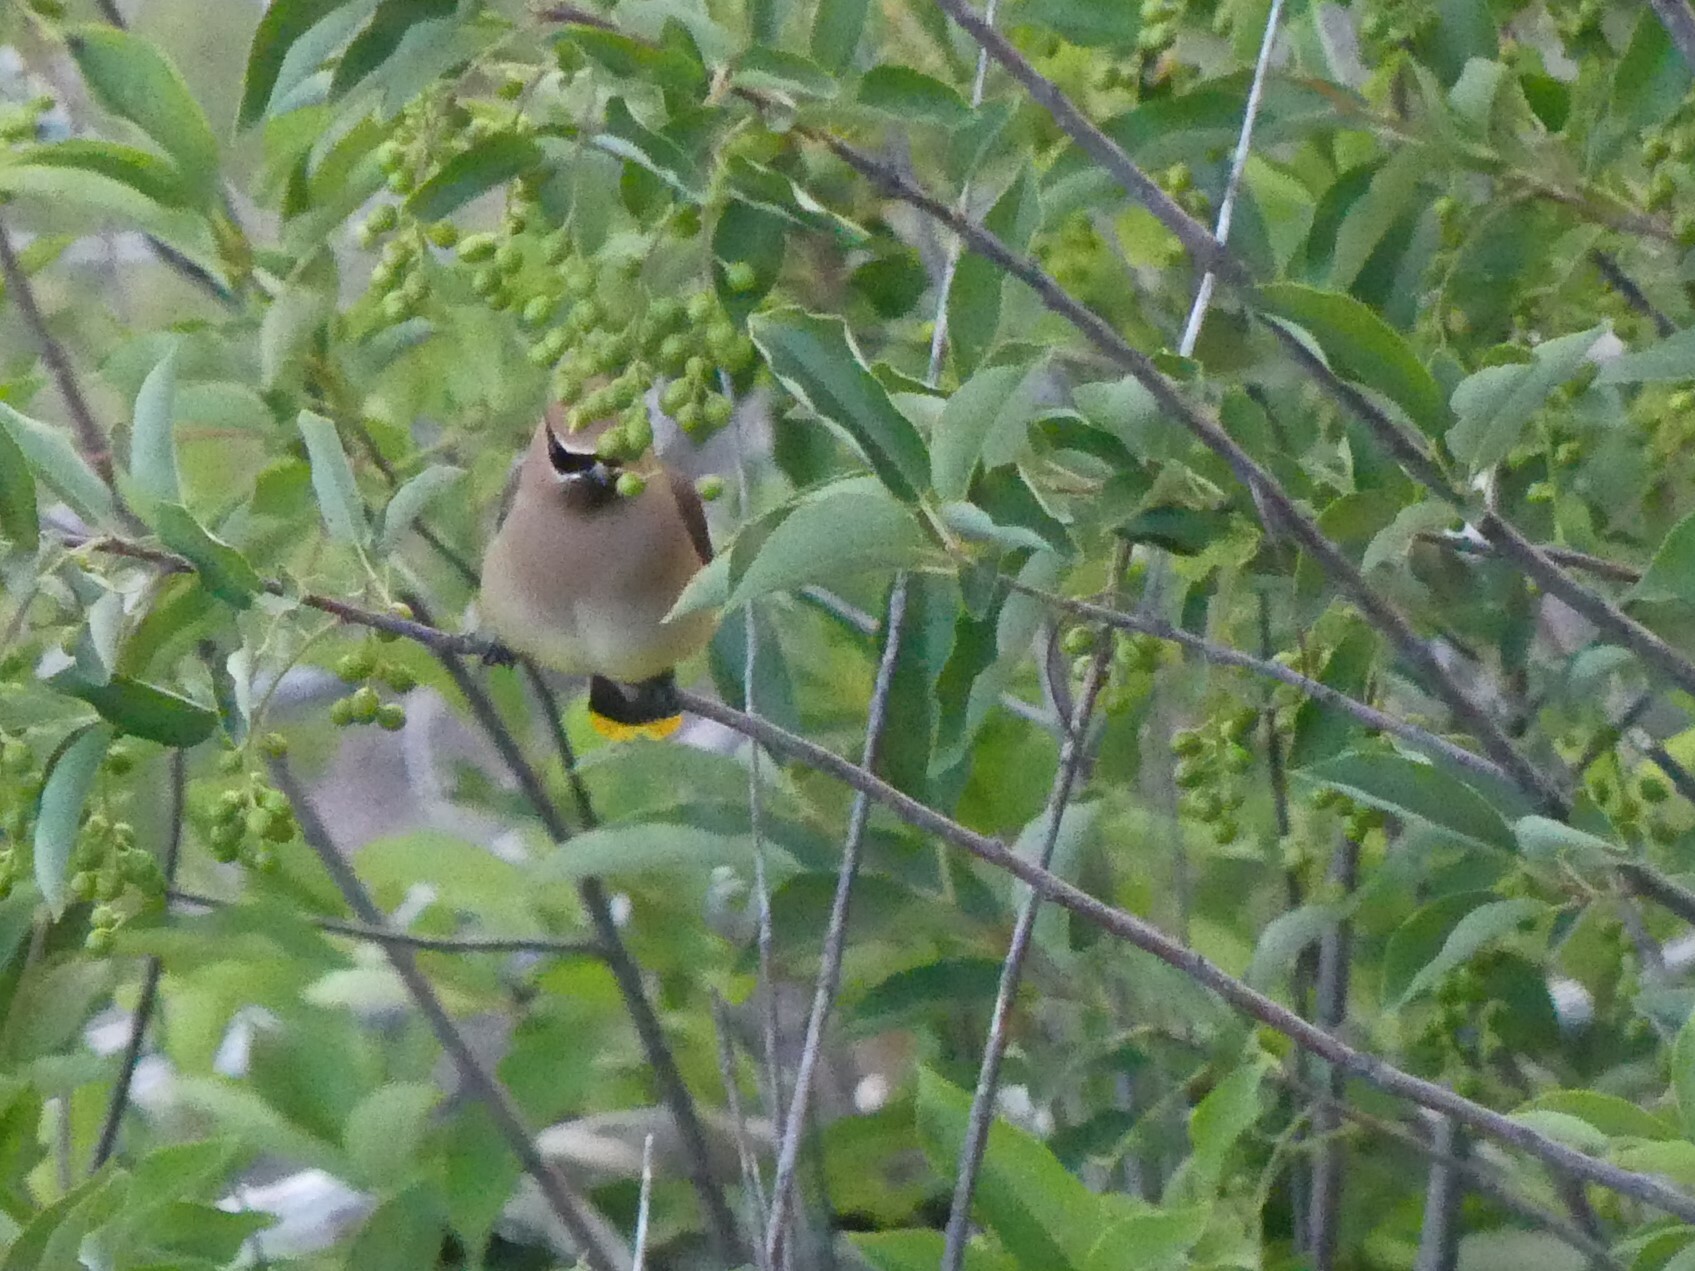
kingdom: Animalia
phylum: Chordata
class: Aves
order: Passeriformes
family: Bombycillidae
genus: Bombycilla
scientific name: Bombycilla cedrorum
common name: Cedar waxwing
